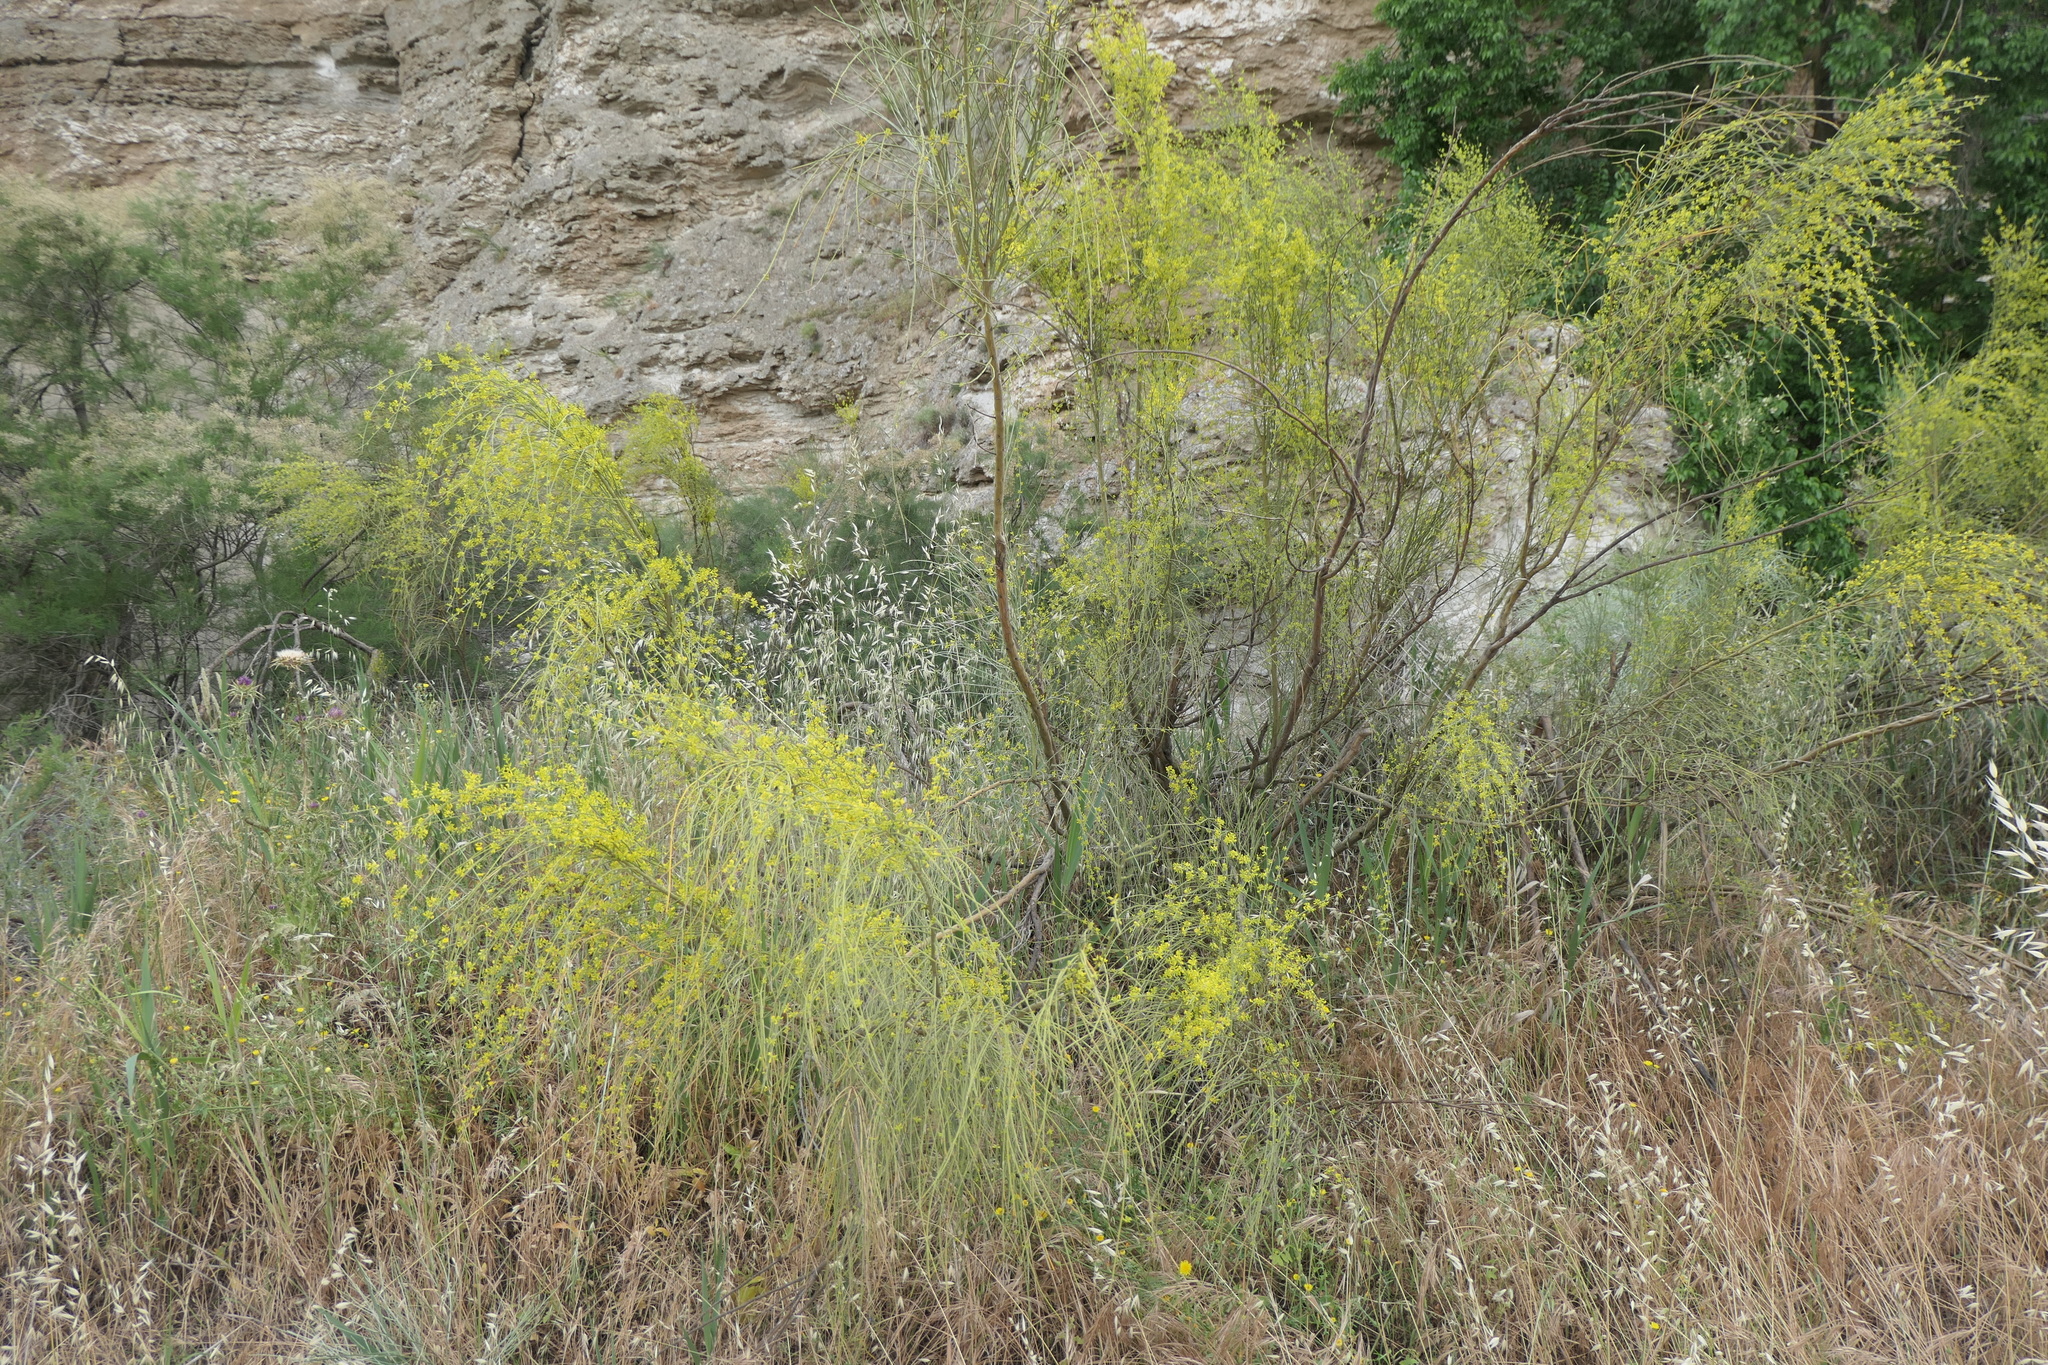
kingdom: Plantae
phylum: Tracheophyta
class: Magnoliopsida
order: Fabales
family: Fabaceae
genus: Retama
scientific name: Retama sphaerocarpa
